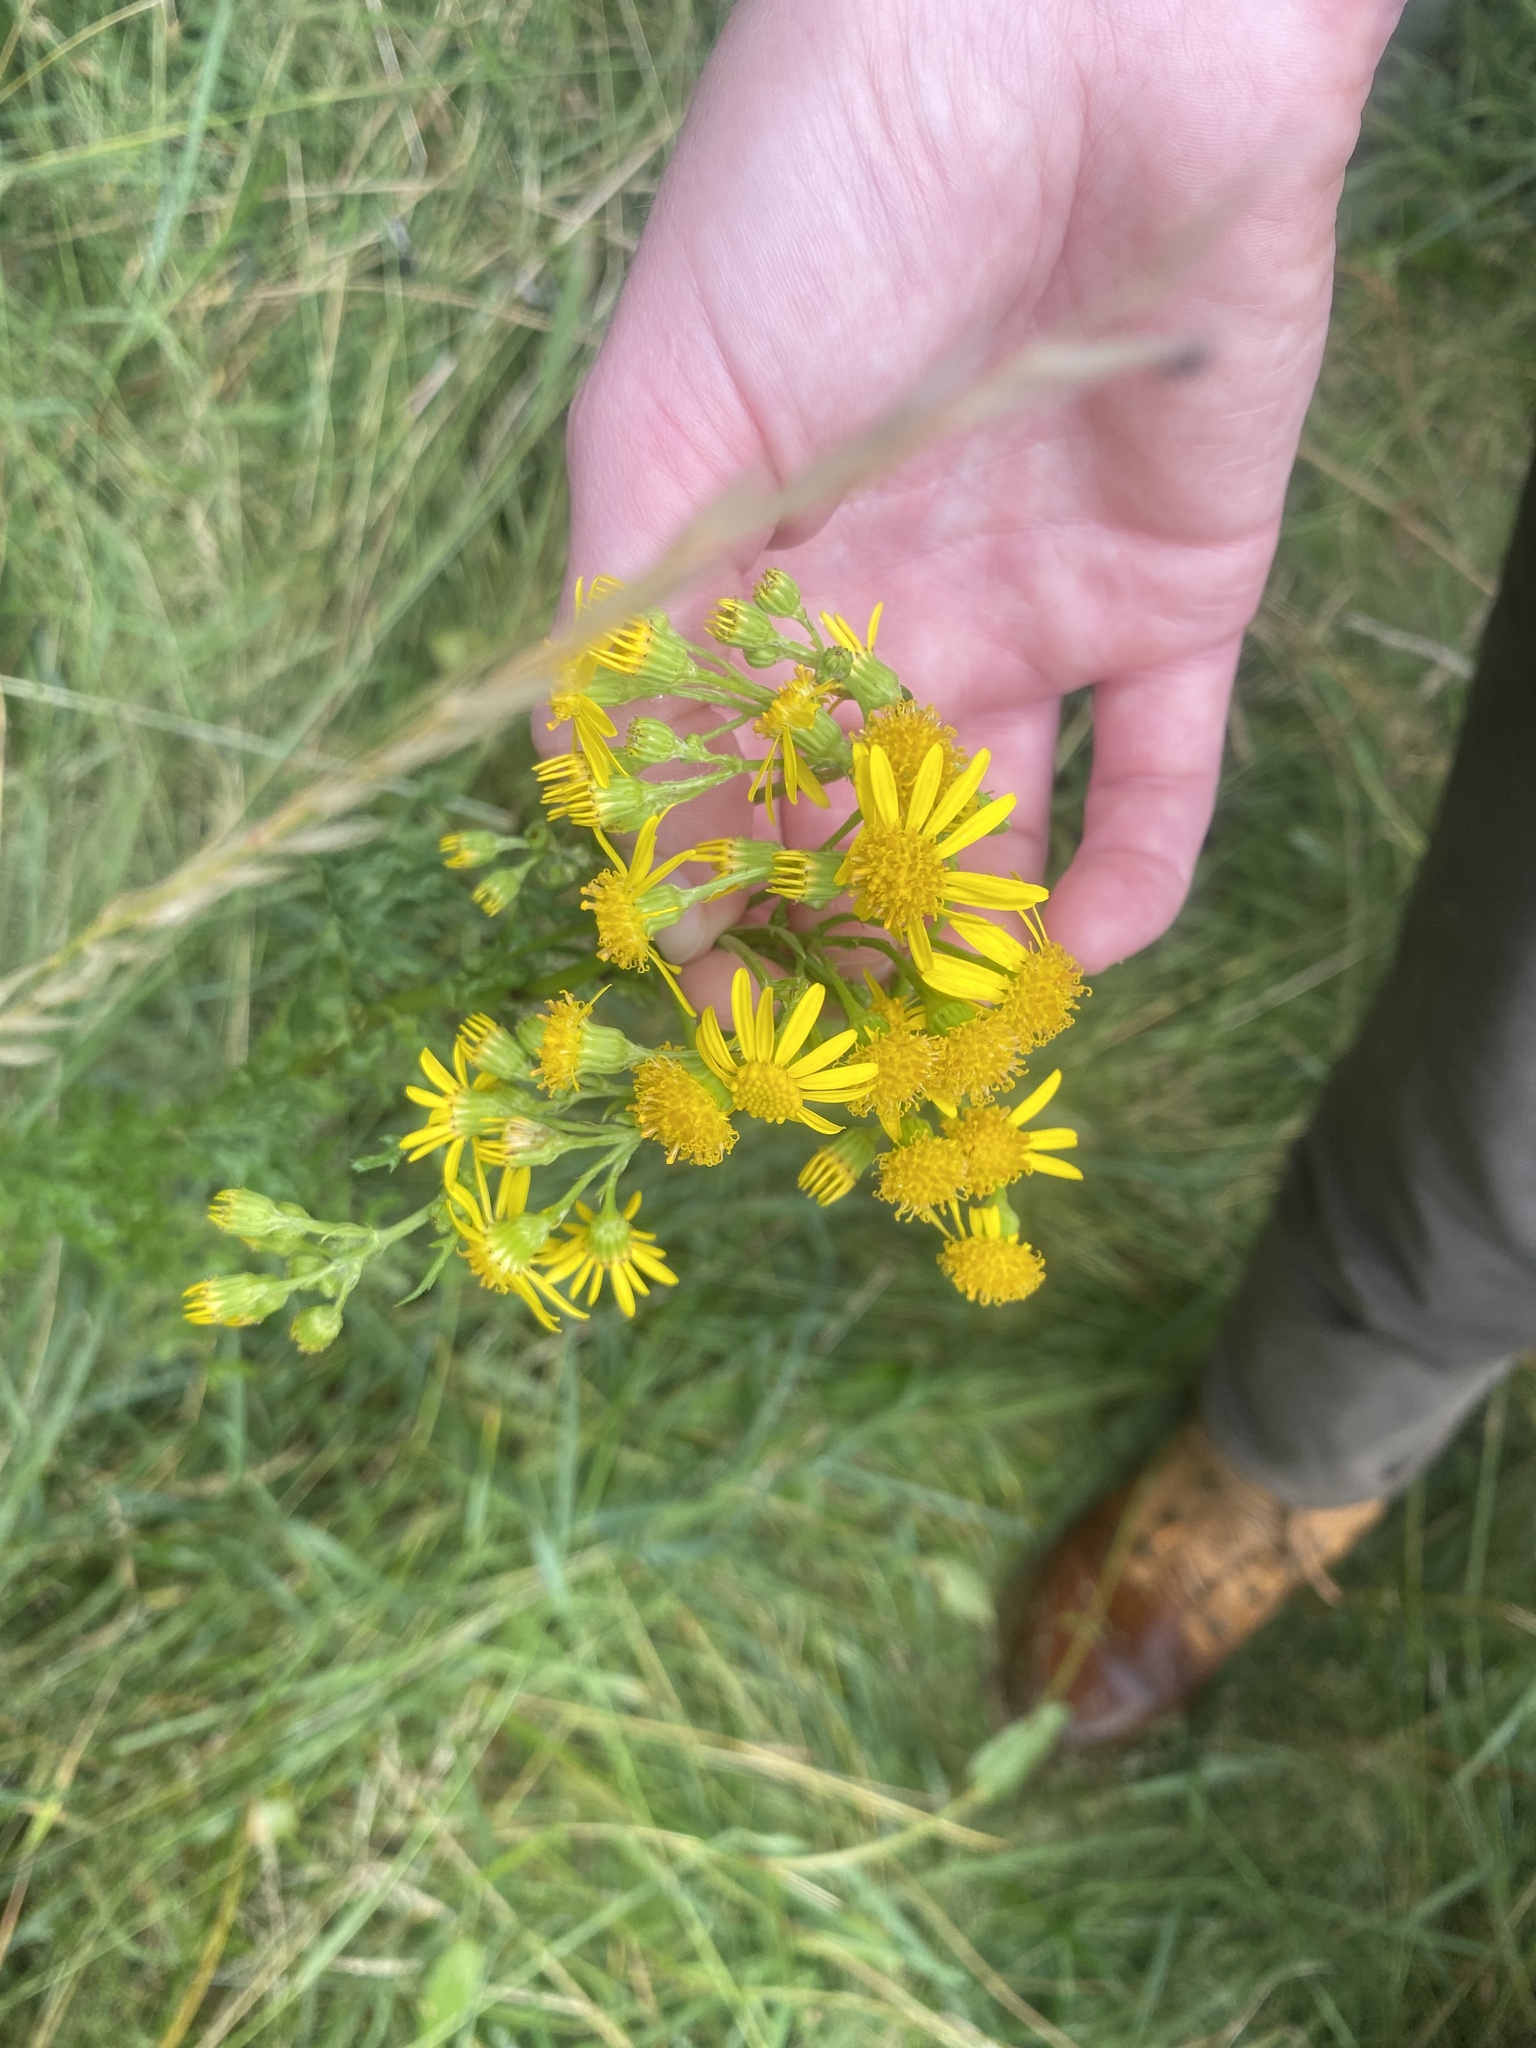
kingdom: Plantae
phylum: Tracheophyta
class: Magnoliopsida
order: Asterales
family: Asteraceae
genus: Jacobaea
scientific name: Jacobaea vulgaris
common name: Stinking willie
